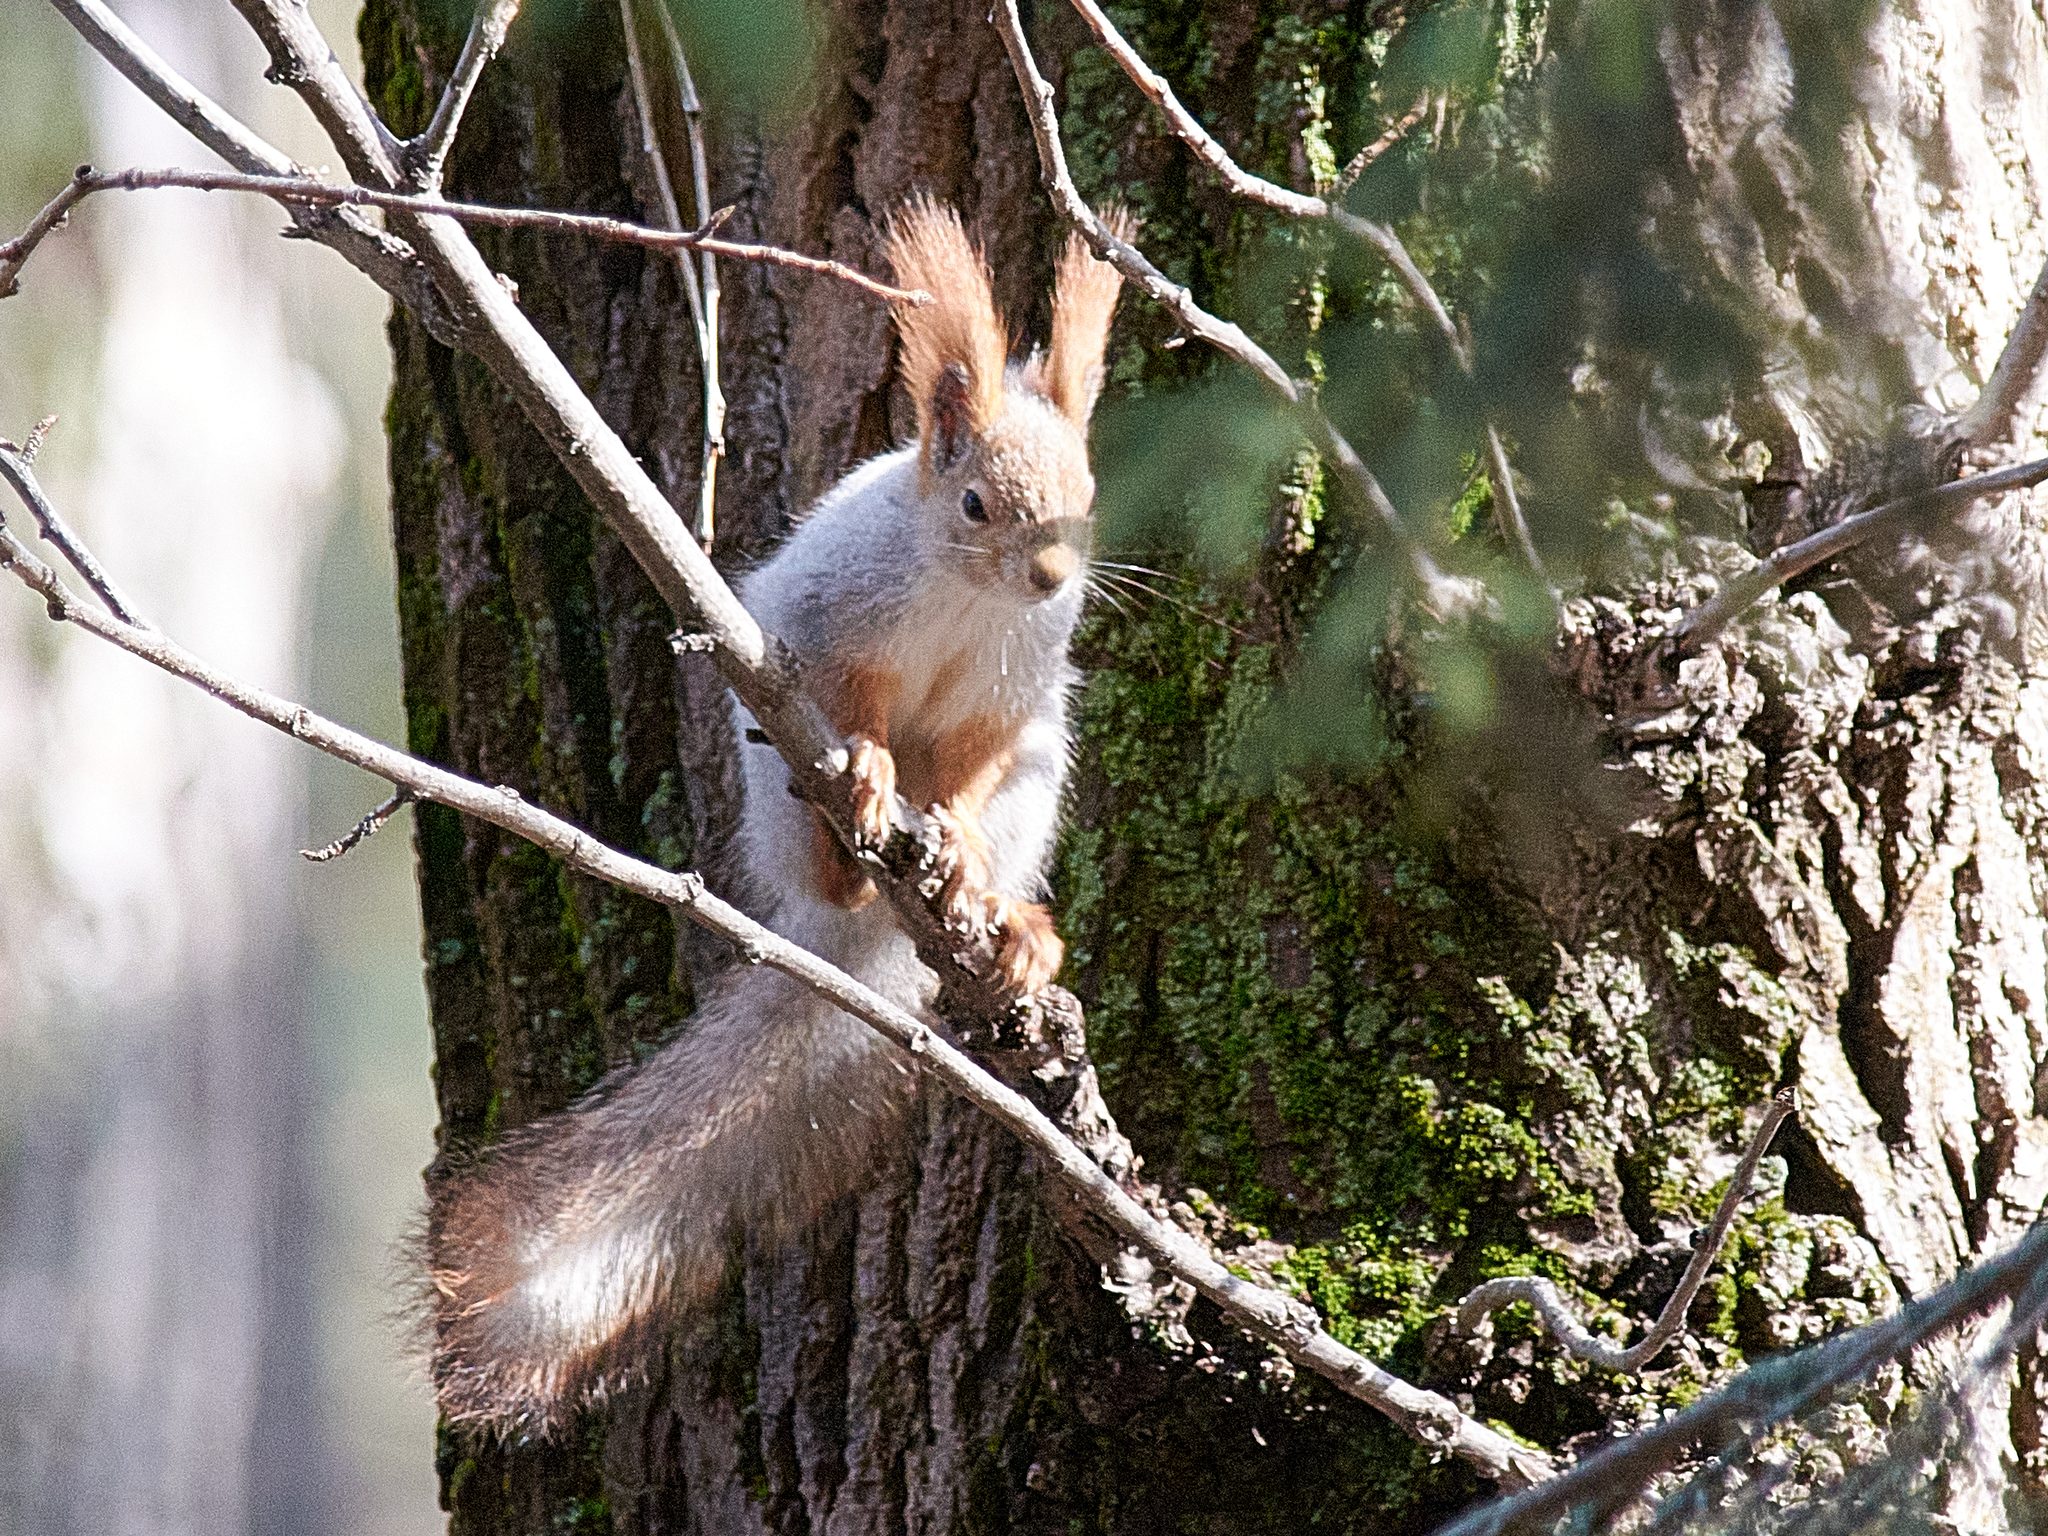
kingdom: Animalia
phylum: Chordata
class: Mammalia
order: Rodentia
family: Sciuridae
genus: Sciurus
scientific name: Sciurus vulgaris
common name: Eurasian red squirrel
